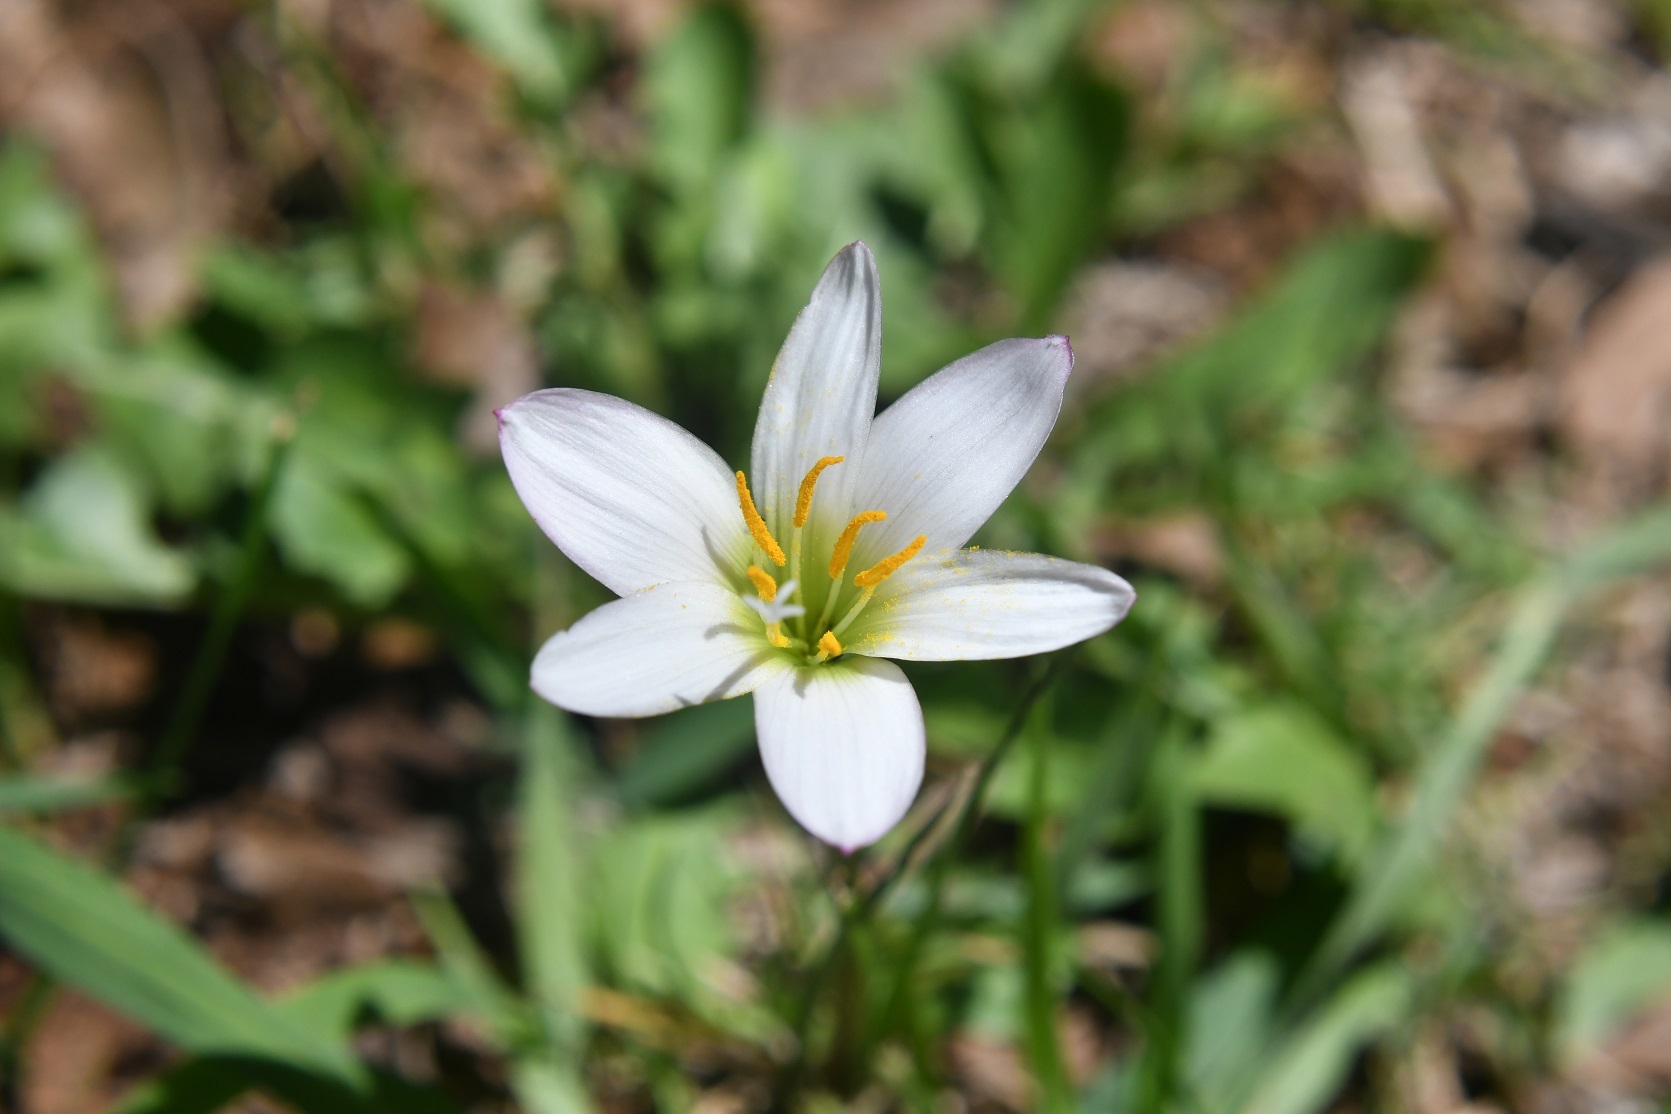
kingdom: Plantae
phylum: Tracheophyta
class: Liliopsida
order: Asparagales
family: Amaryllidaceae
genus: Zephyranthes
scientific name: Zephyranthes minuta
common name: Pink rain lily
